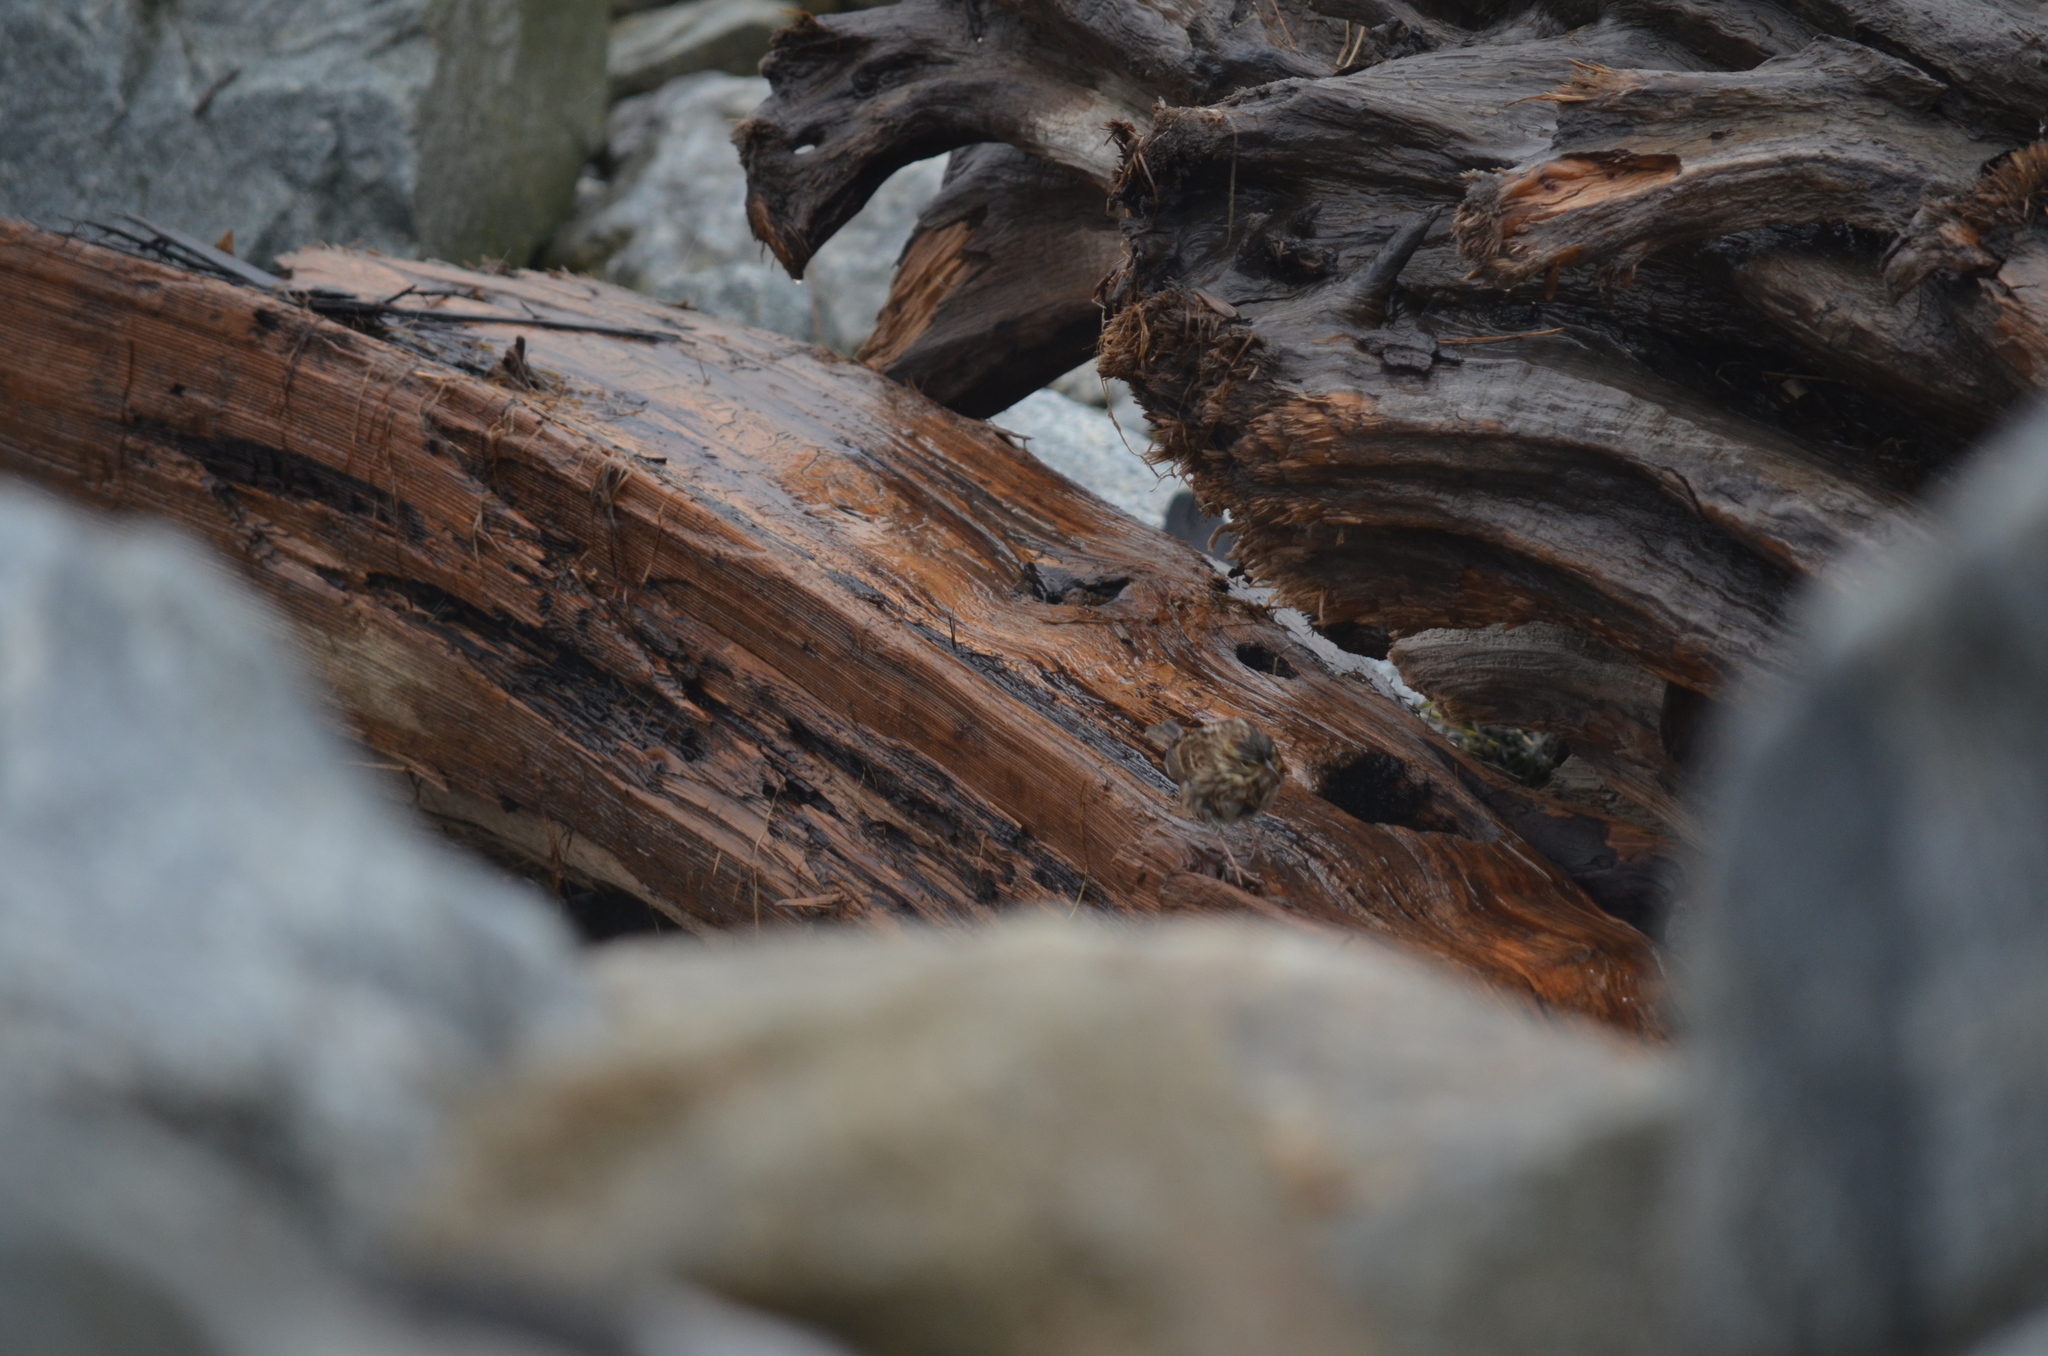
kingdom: Animalia
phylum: Chordata
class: Aves
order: Passeriformes
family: Passerellidae
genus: Passerculus
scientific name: Passerculus sandwichensis
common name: Savannah sparrow
